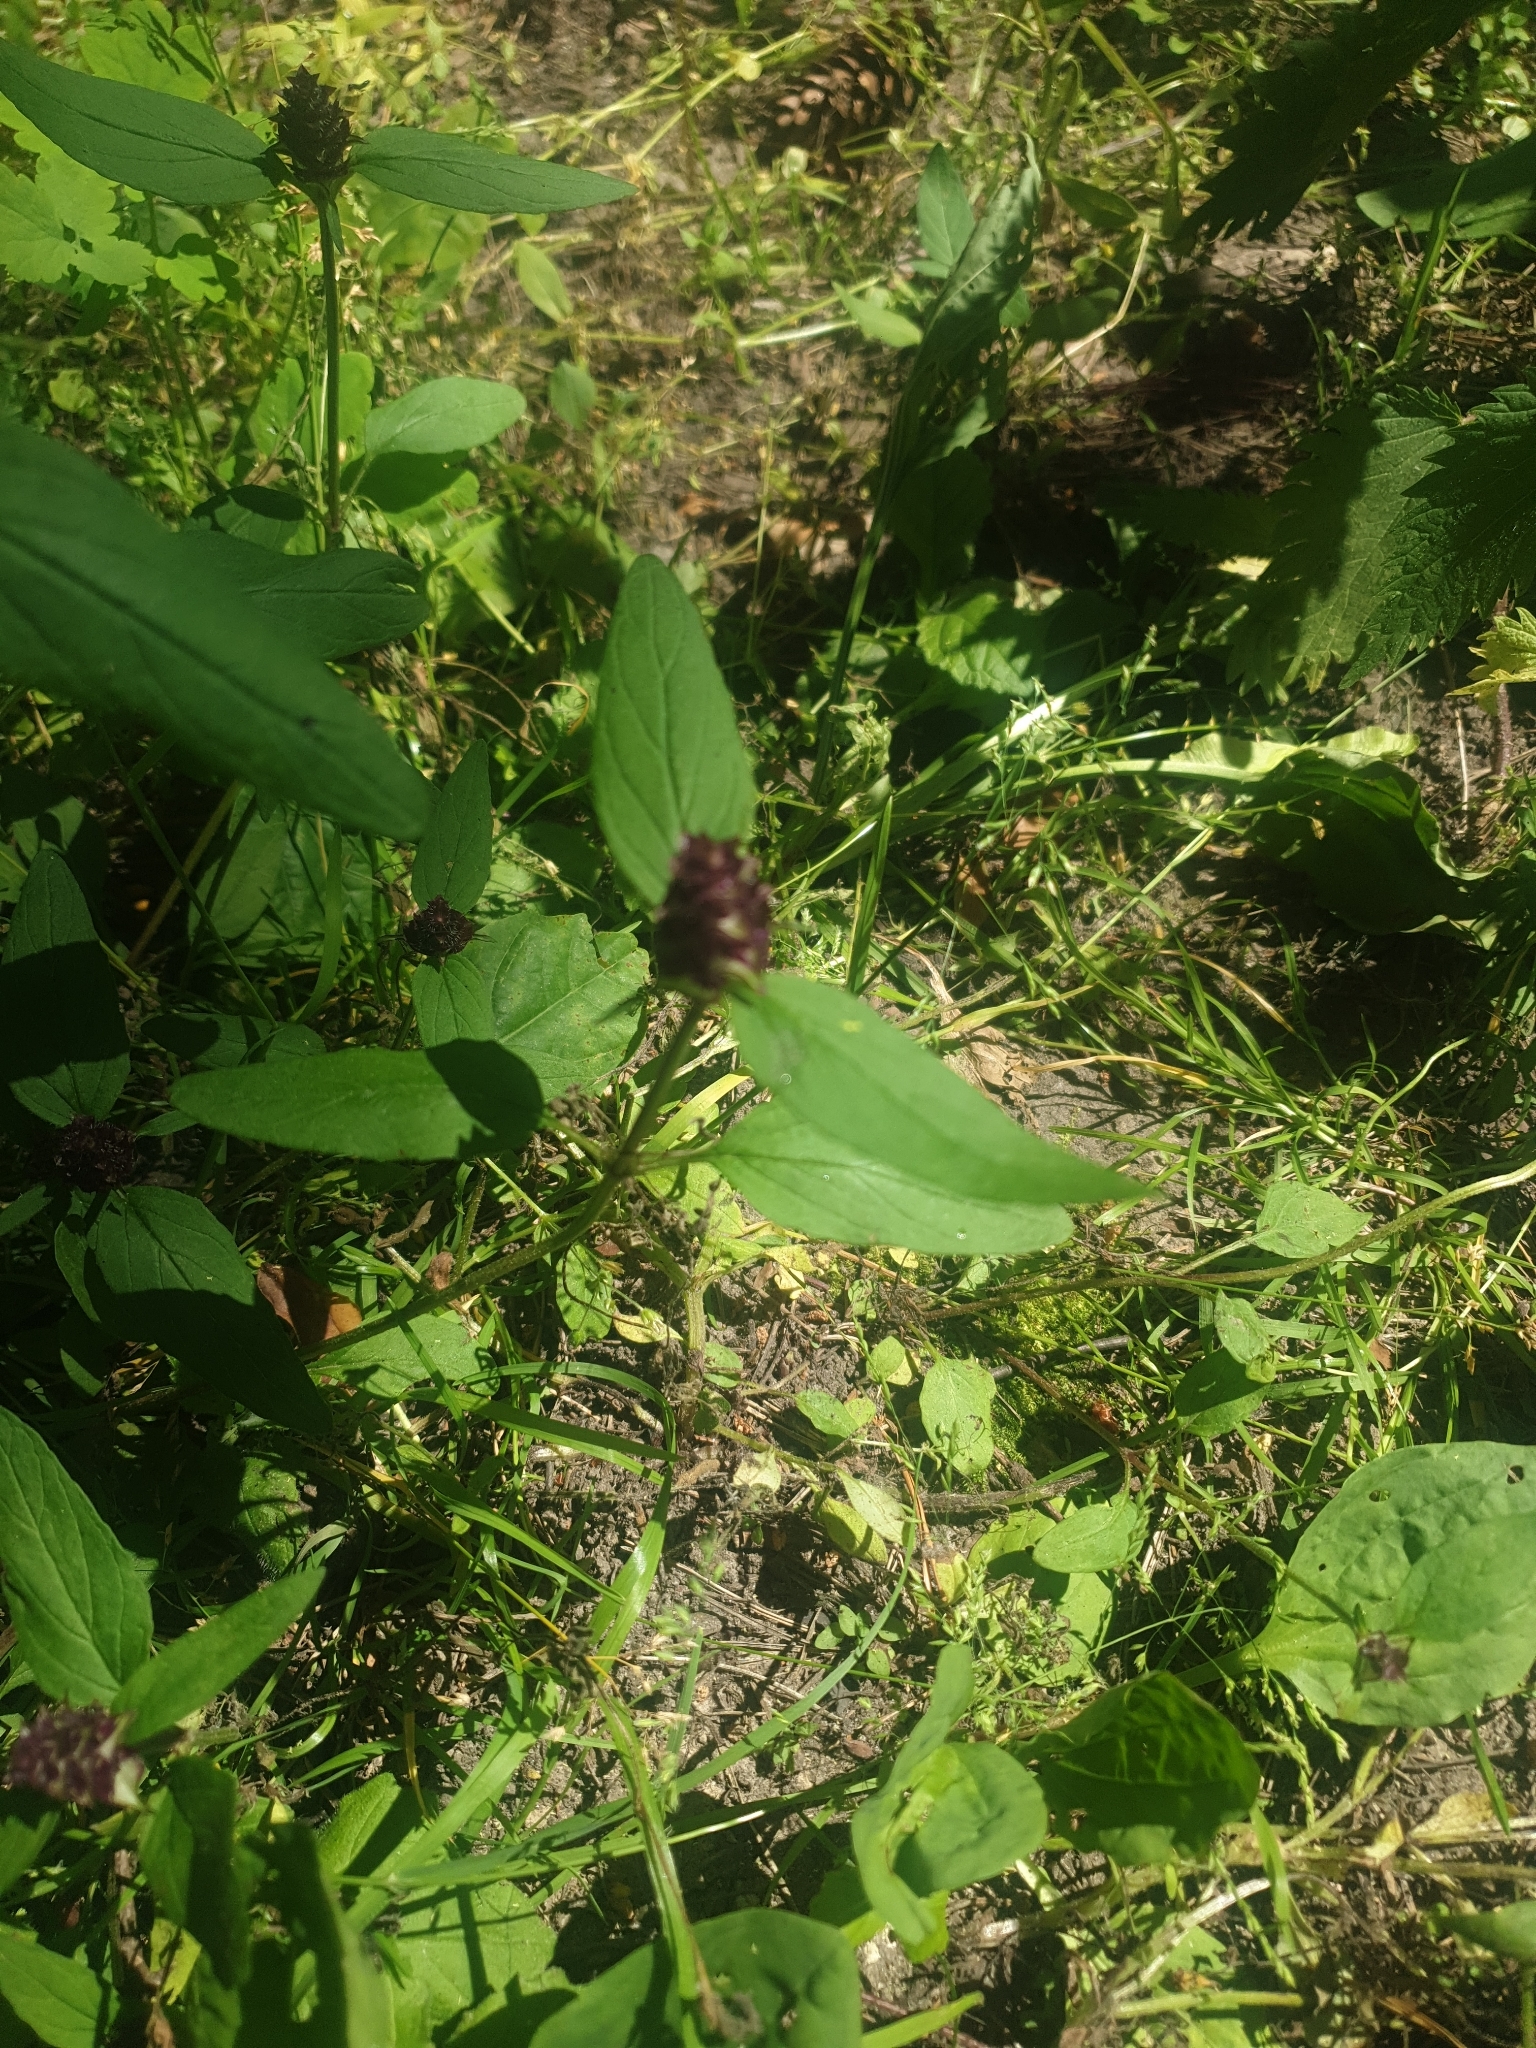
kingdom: Plantae
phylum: Tracheophyta
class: Magnoliopsida
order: Lamiales
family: Lamiaceae
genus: Prunella
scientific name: Prunella vulgaris
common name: Heal-all
